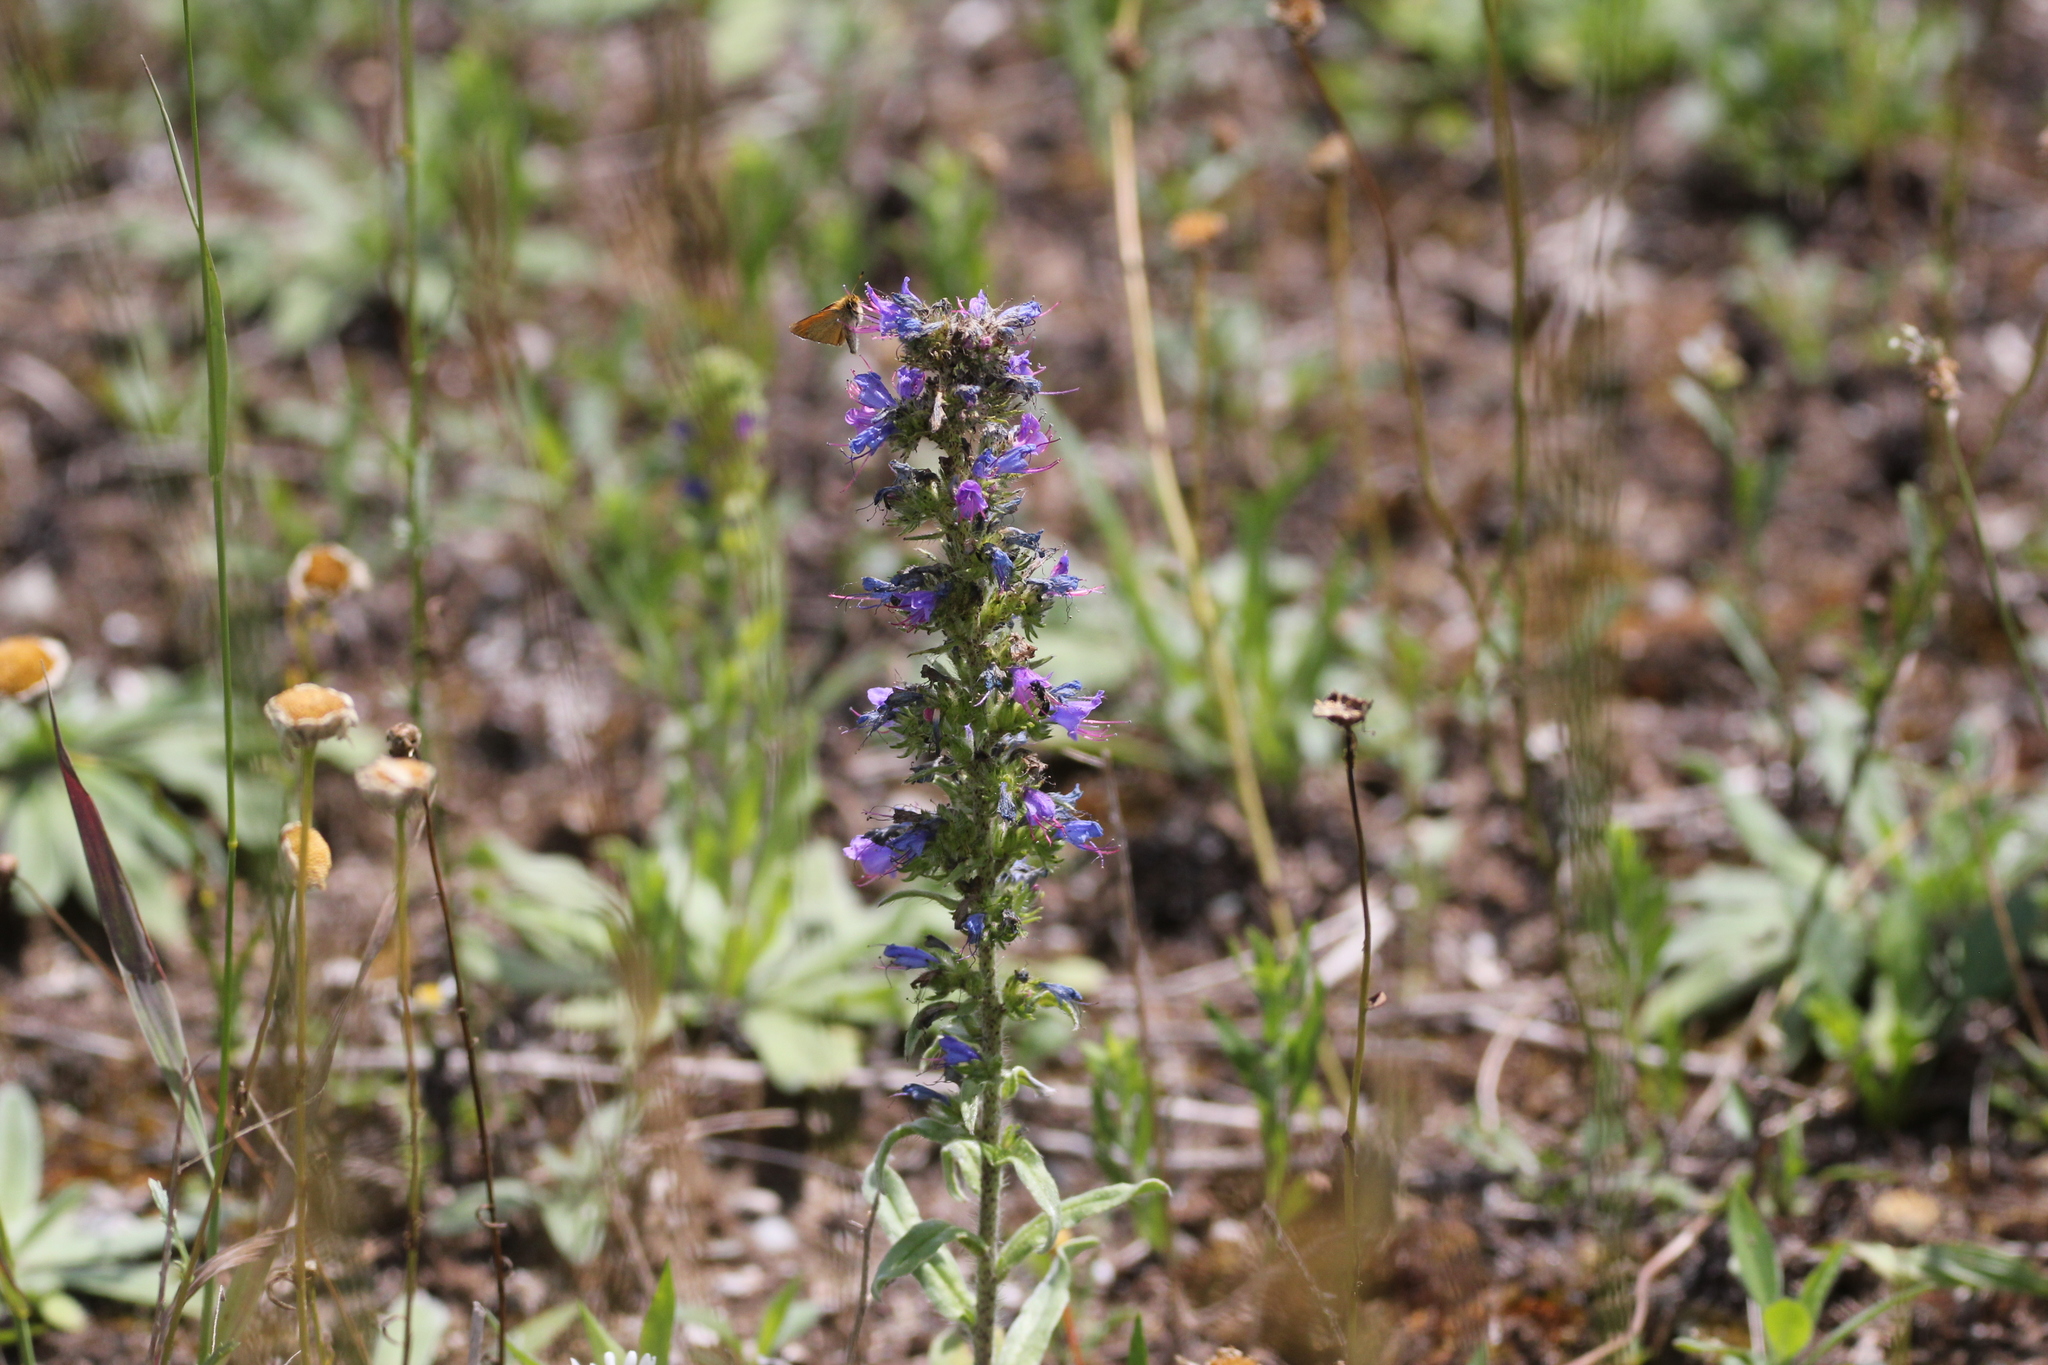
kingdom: Plantae
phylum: Tracheophyta
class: Magnoliopsida
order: Boraginales
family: Boraginaceae
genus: Echium
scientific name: Echium vulgare
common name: Common viper's bugloss
